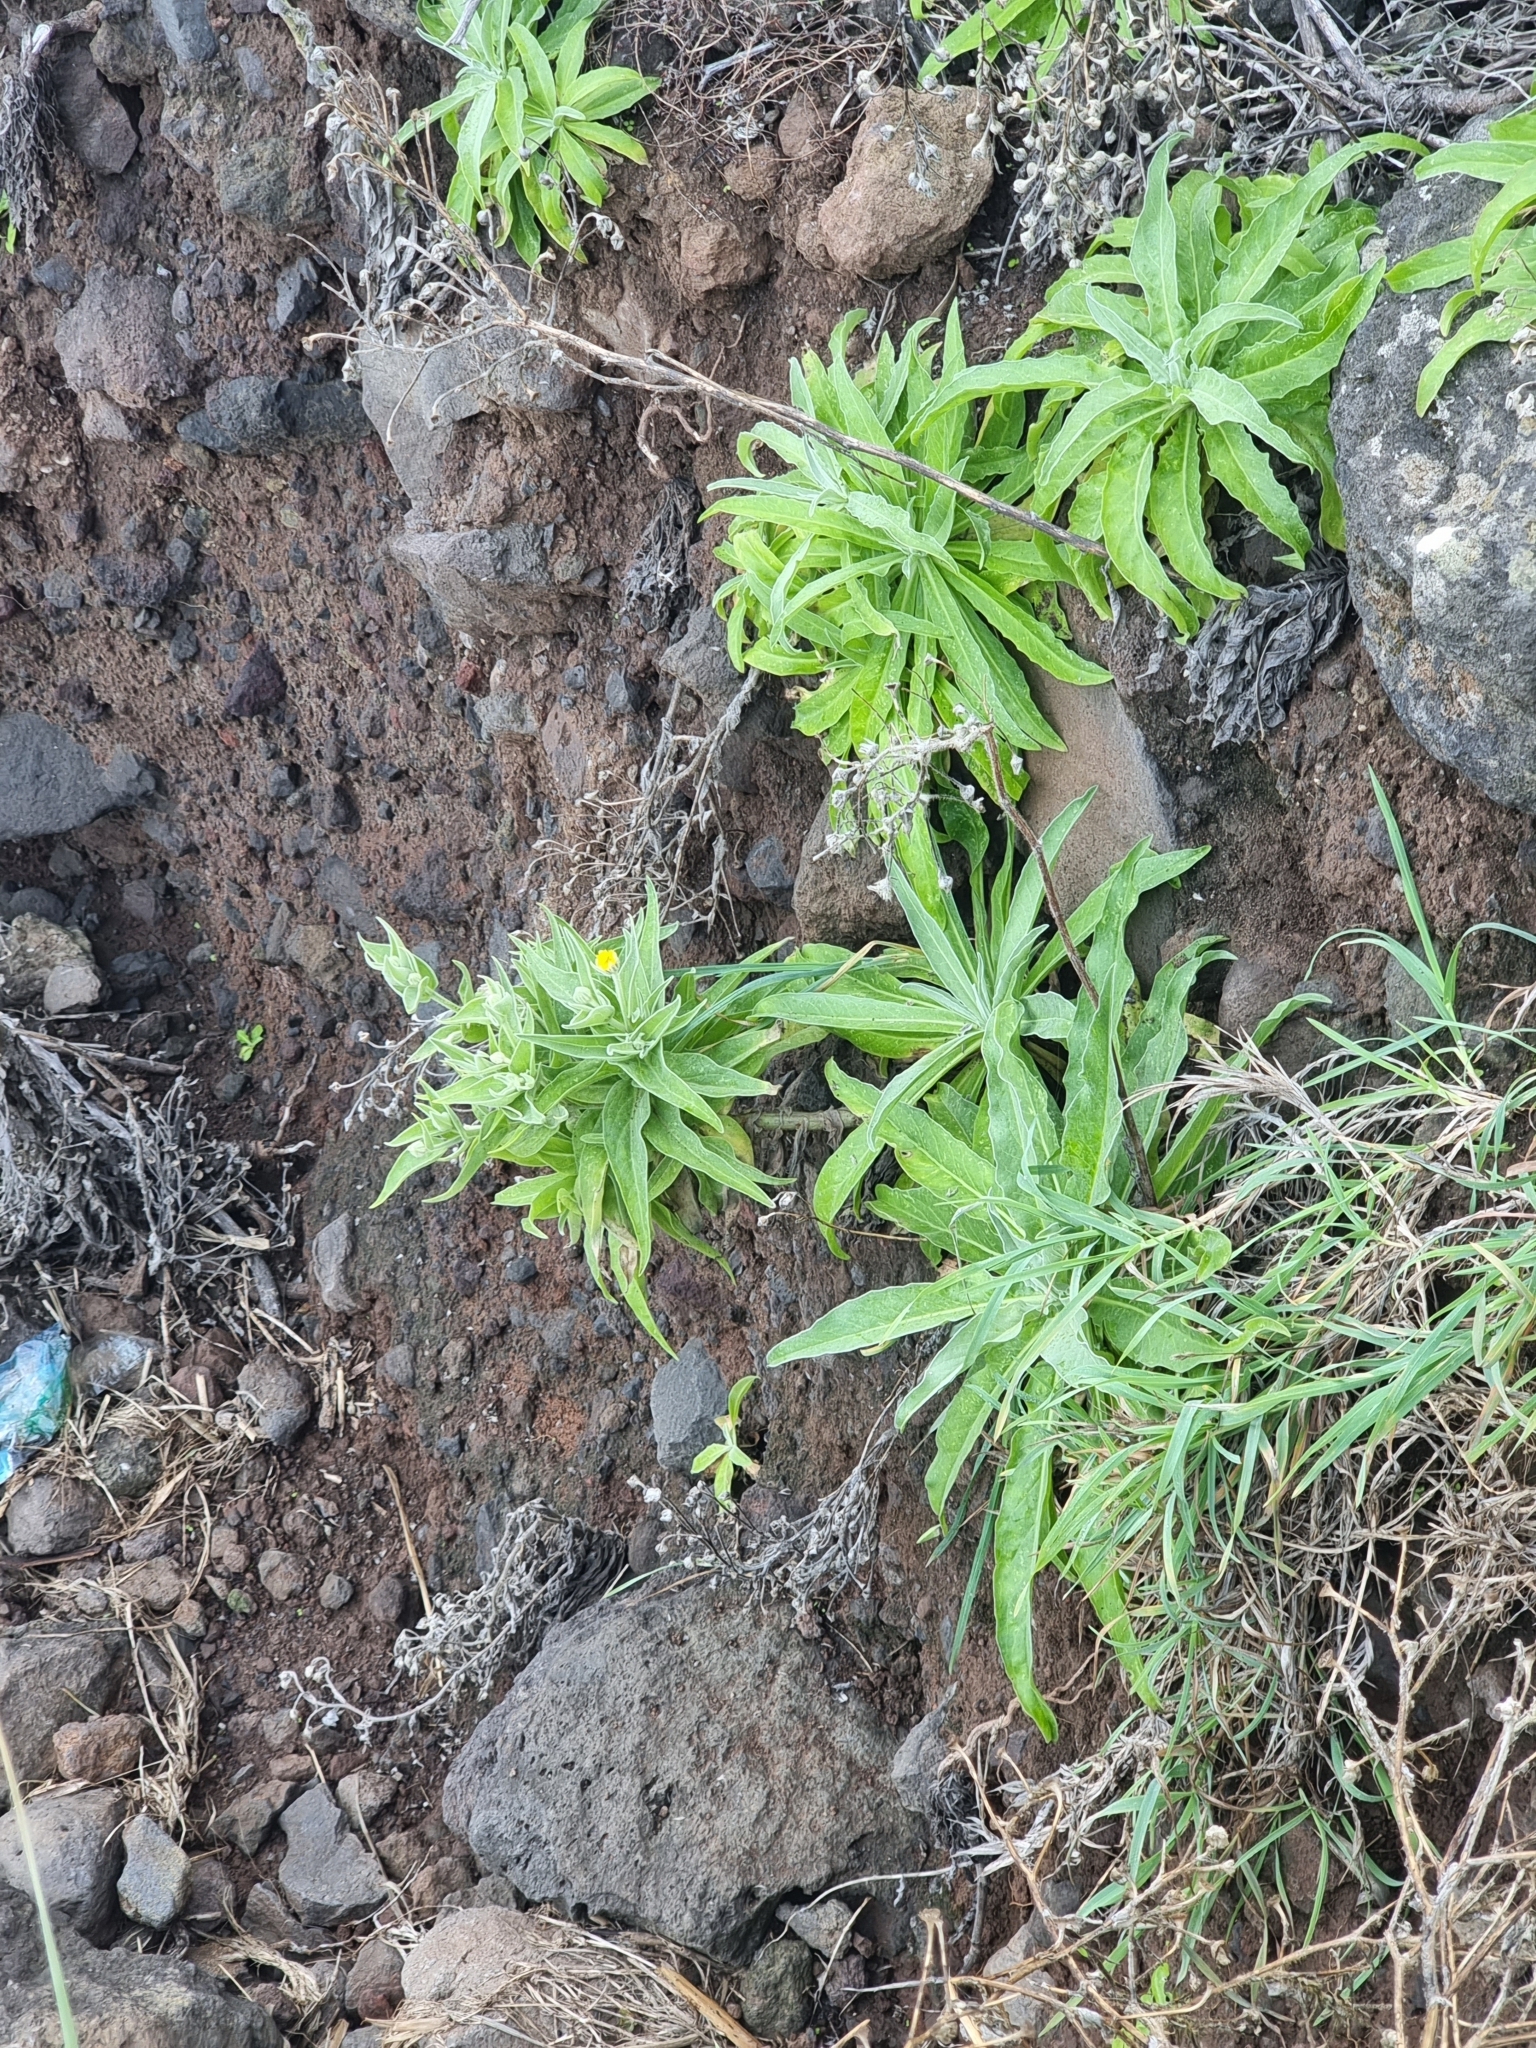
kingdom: Plantae
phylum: Tracheophyta
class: Magnoliopsida
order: Asterales
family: Asteraceae
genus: Andryala
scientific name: Andryala glandulosa
